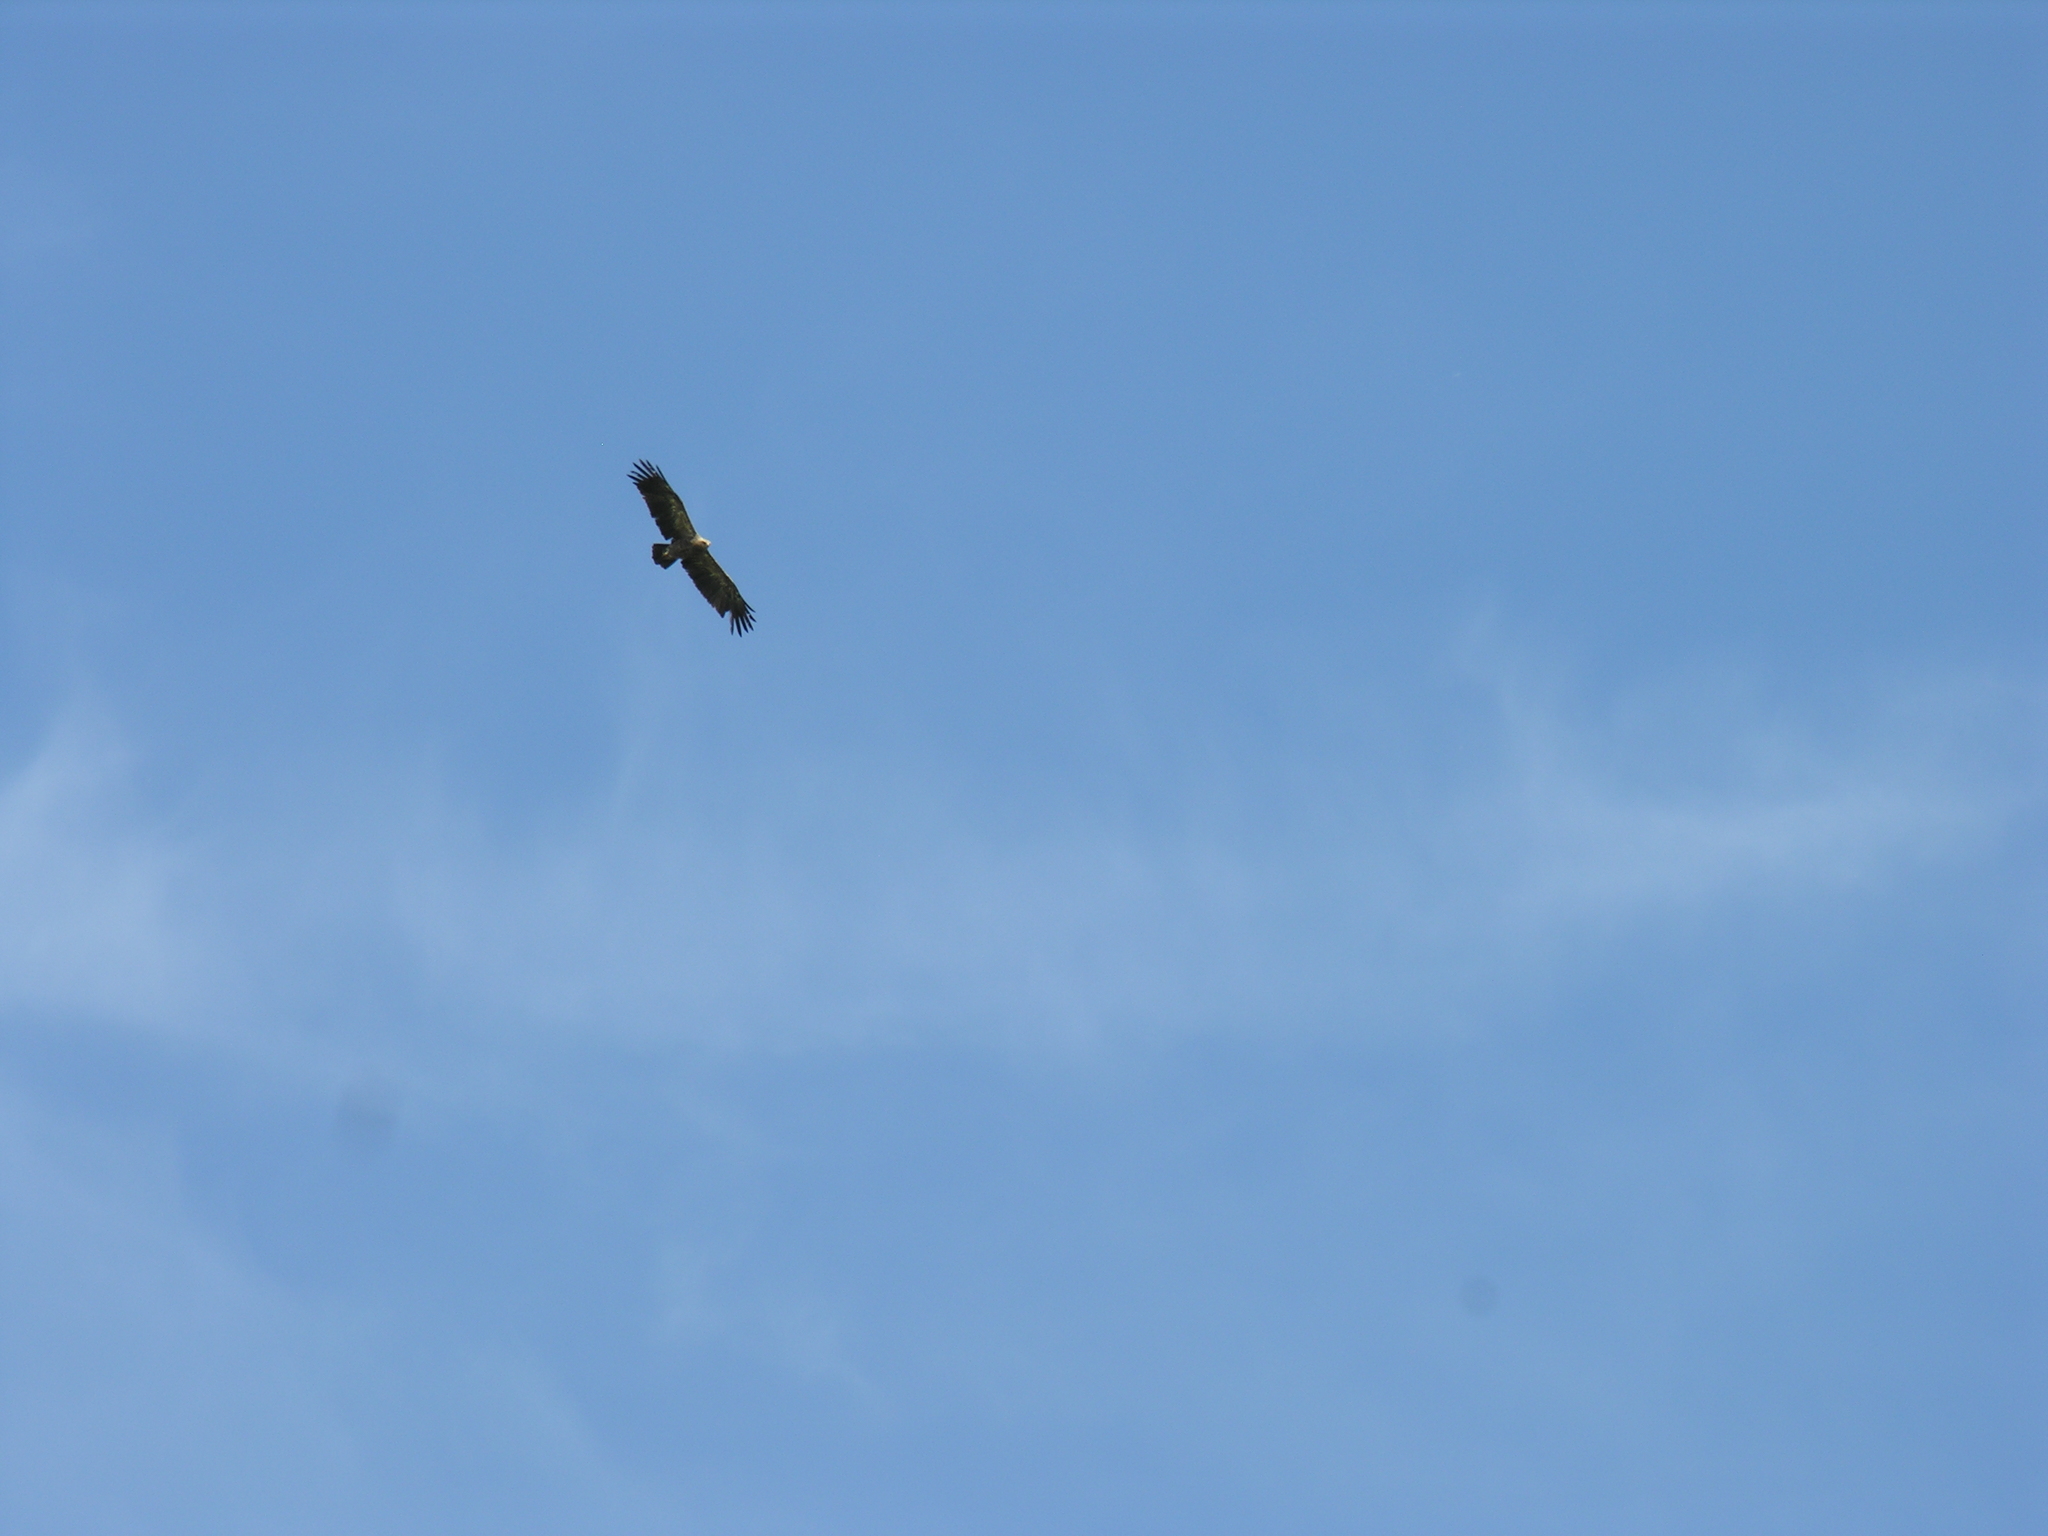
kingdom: Animalia
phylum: Chordata
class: Aves
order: Accipitriformes
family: Accipitridae
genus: Aquila
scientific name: Aquila heliaca
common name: Eastern imperial eagle
